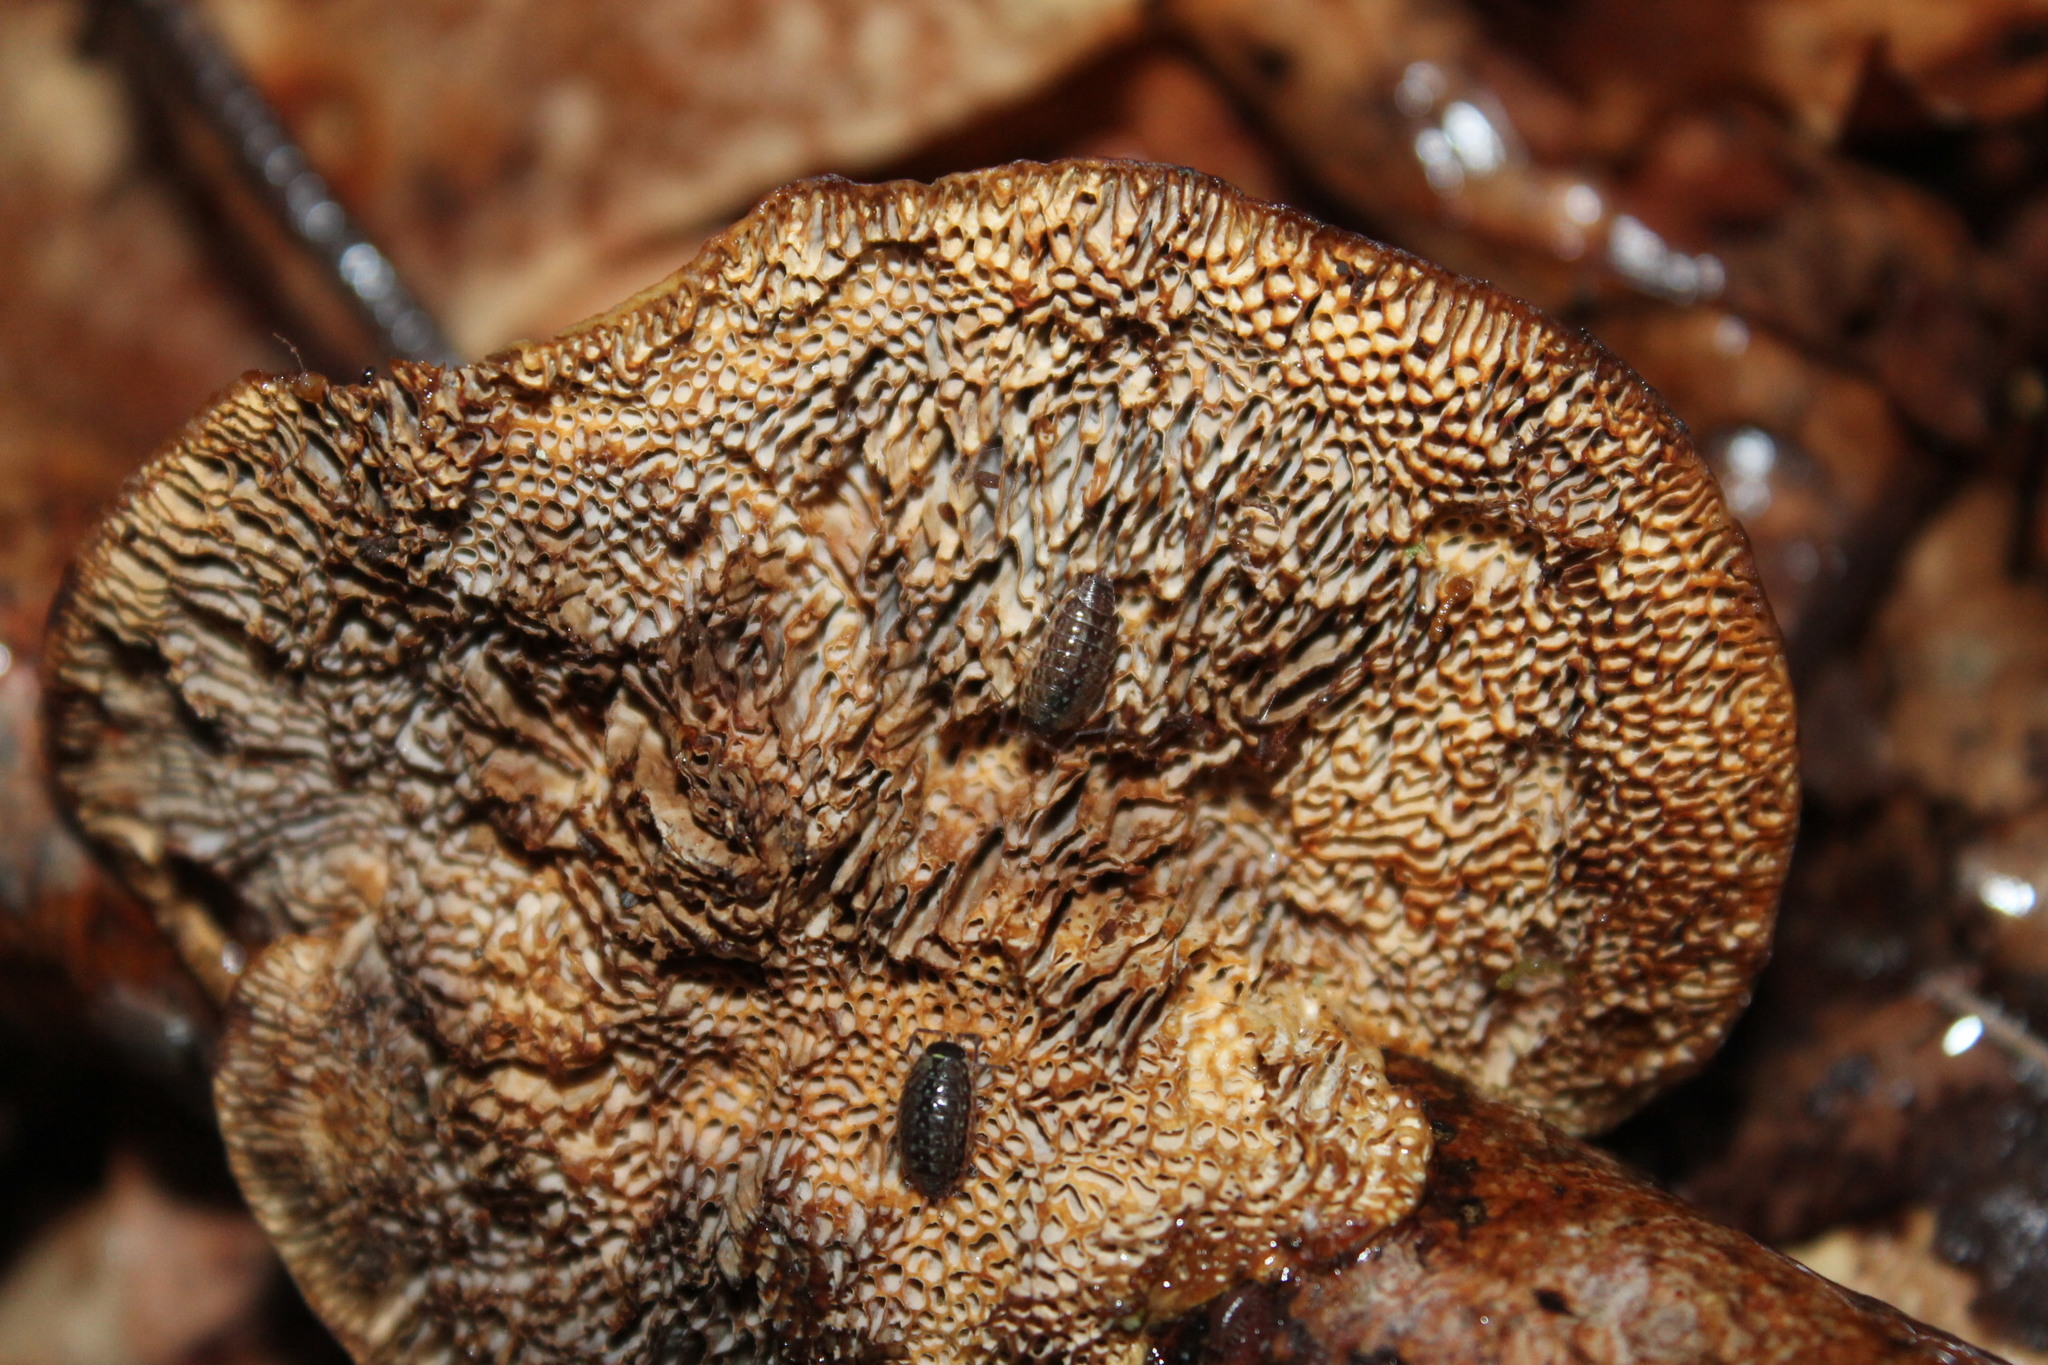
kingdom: Animalia
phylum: Arthropoda
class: Malacostraca
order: Isopoda
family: Philosciidae
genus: Philoscia
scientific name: Philoscia muscorum
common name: Common striped woodlouse
